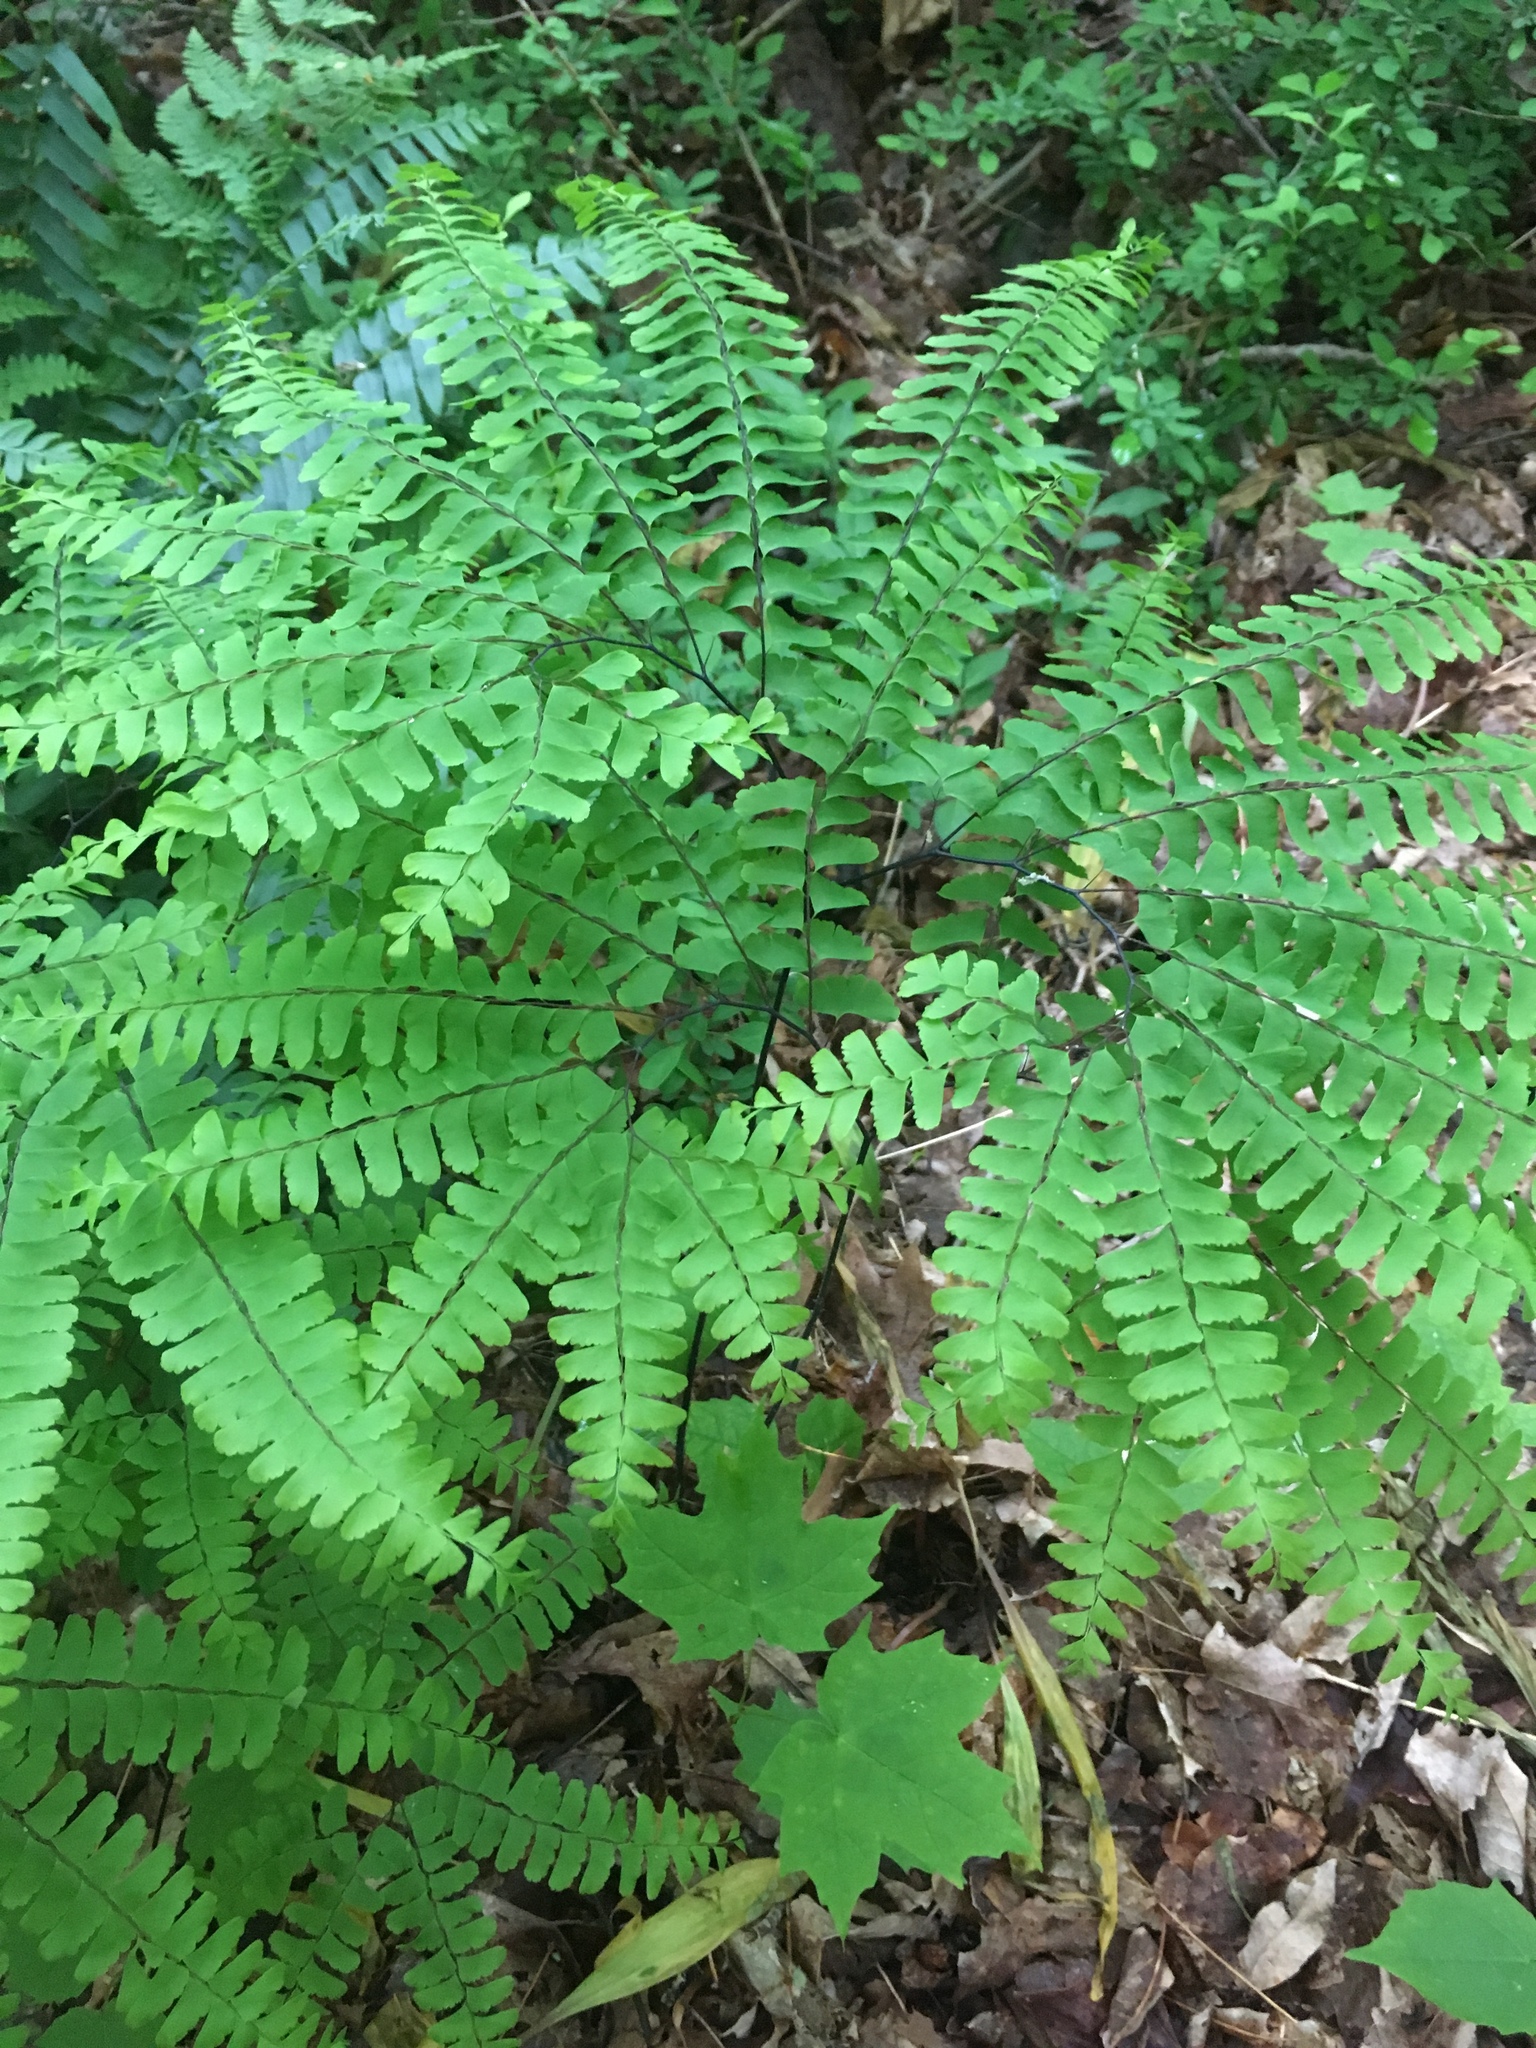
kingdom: Plantae
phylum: Tracheophyta
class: Polypodiopsida
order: Polypodiales
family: Pteridaceae
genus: Adiantum
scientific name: Adiantum pedatum
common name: Five-finger fern
